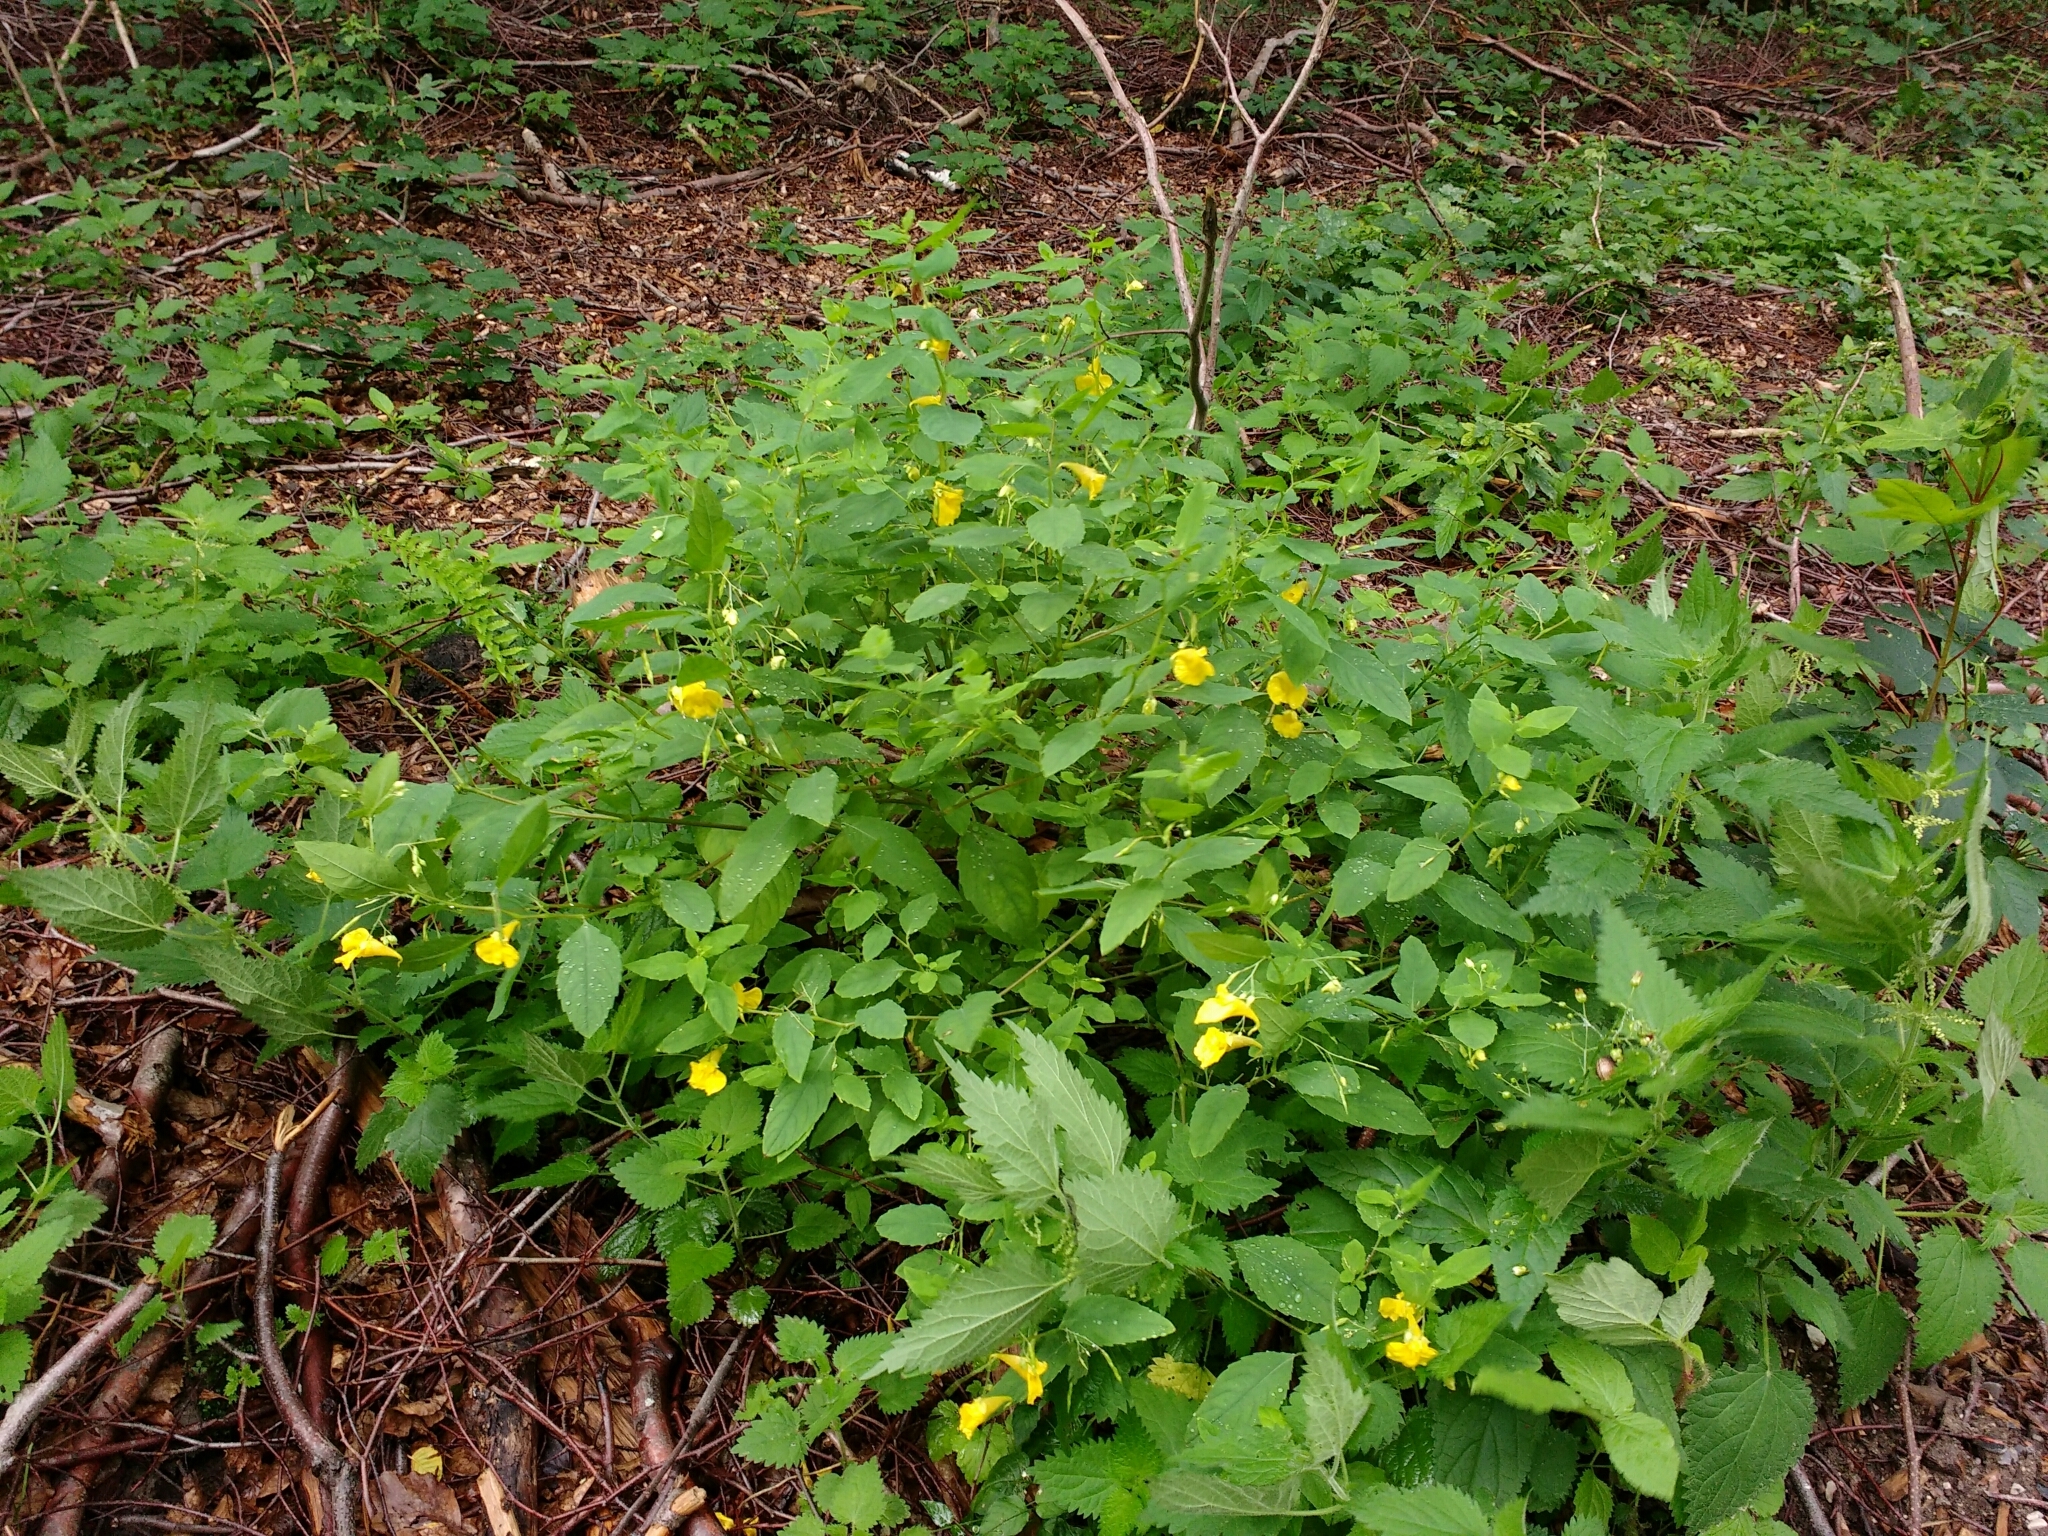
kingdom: Plantae
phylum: Tracheophyta
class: Magnoliopsida
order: Ericales
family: Balsaminaceae
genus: Impatiens
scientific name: Impatiens noli-tangere
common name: Touch-me-not balsam
